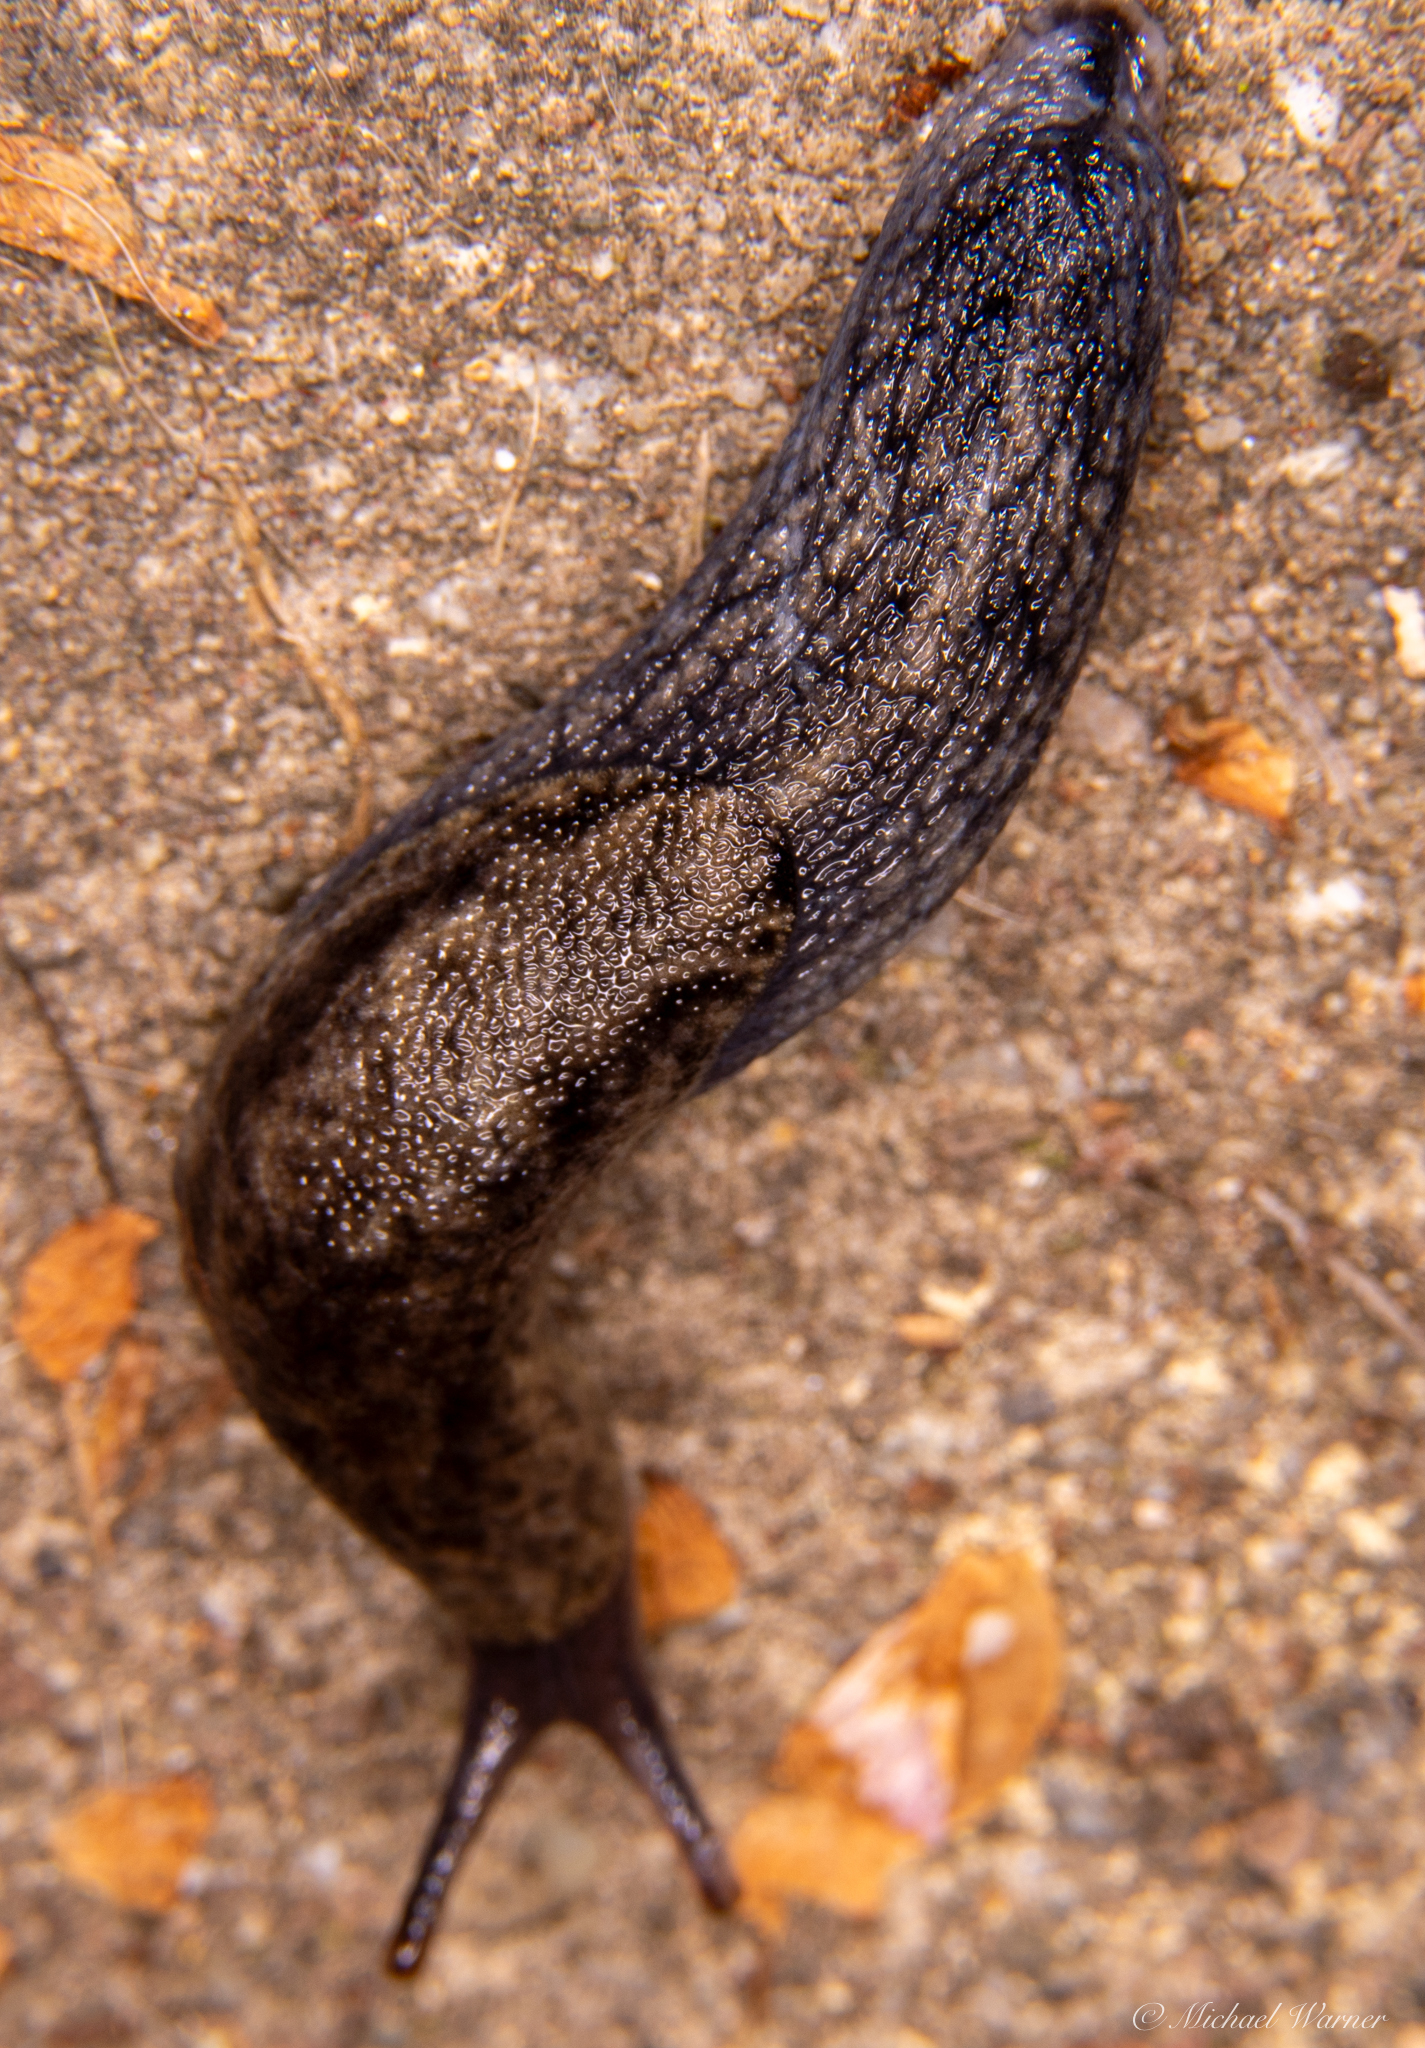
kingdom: Animalia
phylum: Mollusca
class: Gastropoda
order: Stylommatophora
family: Ariolimacidae
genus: Prophysaon
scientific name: Prophysaon andersonii
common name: Reticulate taildropper
